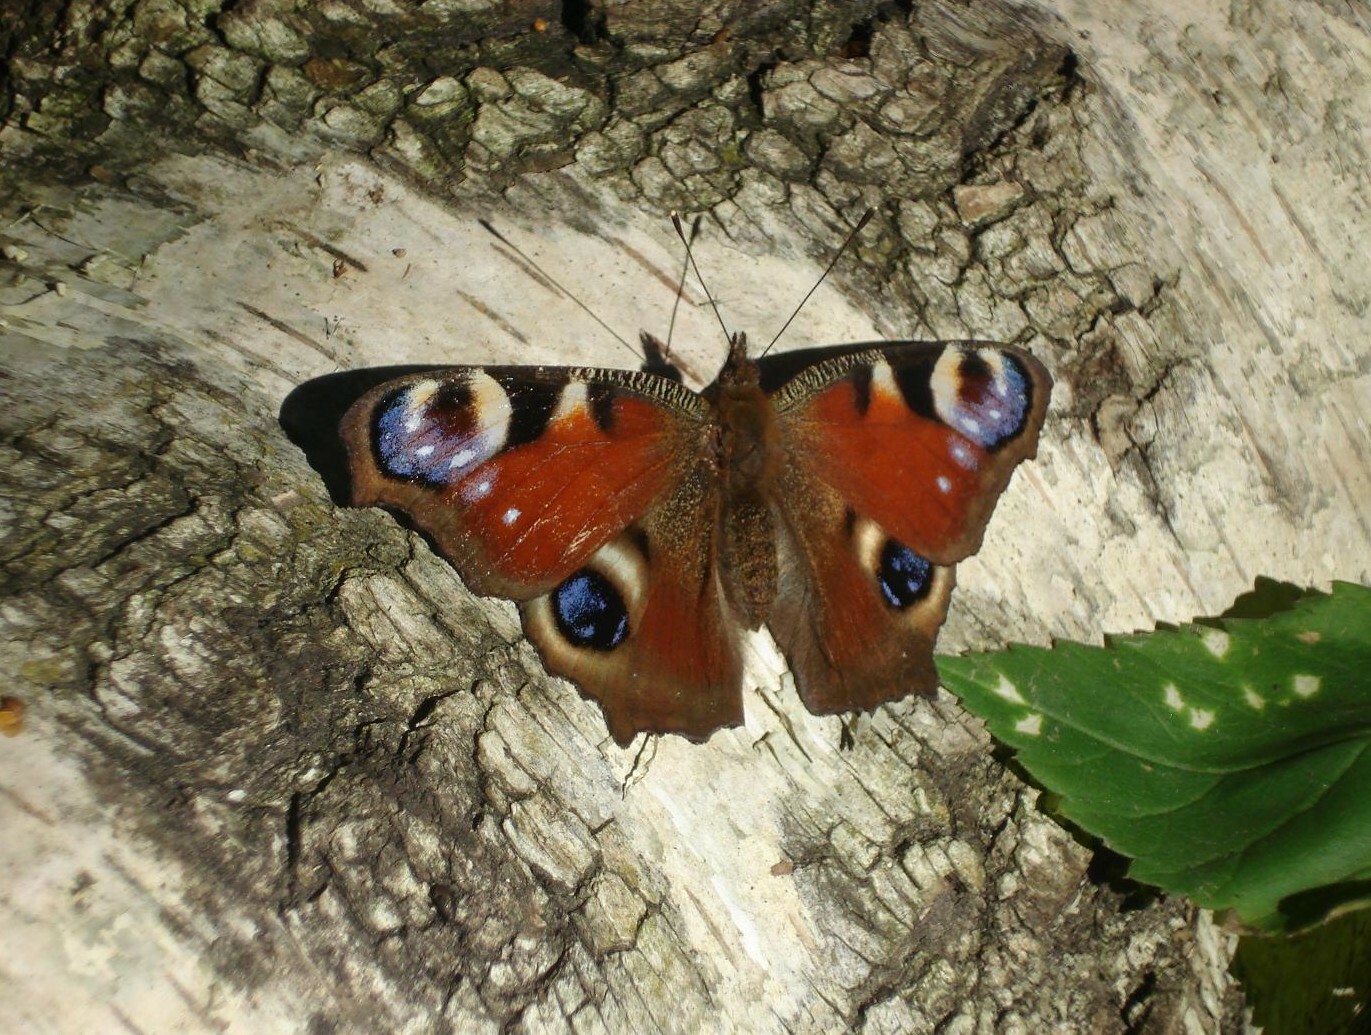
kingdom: Animalia
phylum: Arthropoda
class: Insecta
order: Lepidoptera
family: Nymphalidae
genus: Aglais
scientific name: Aglais io
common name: Peacock
